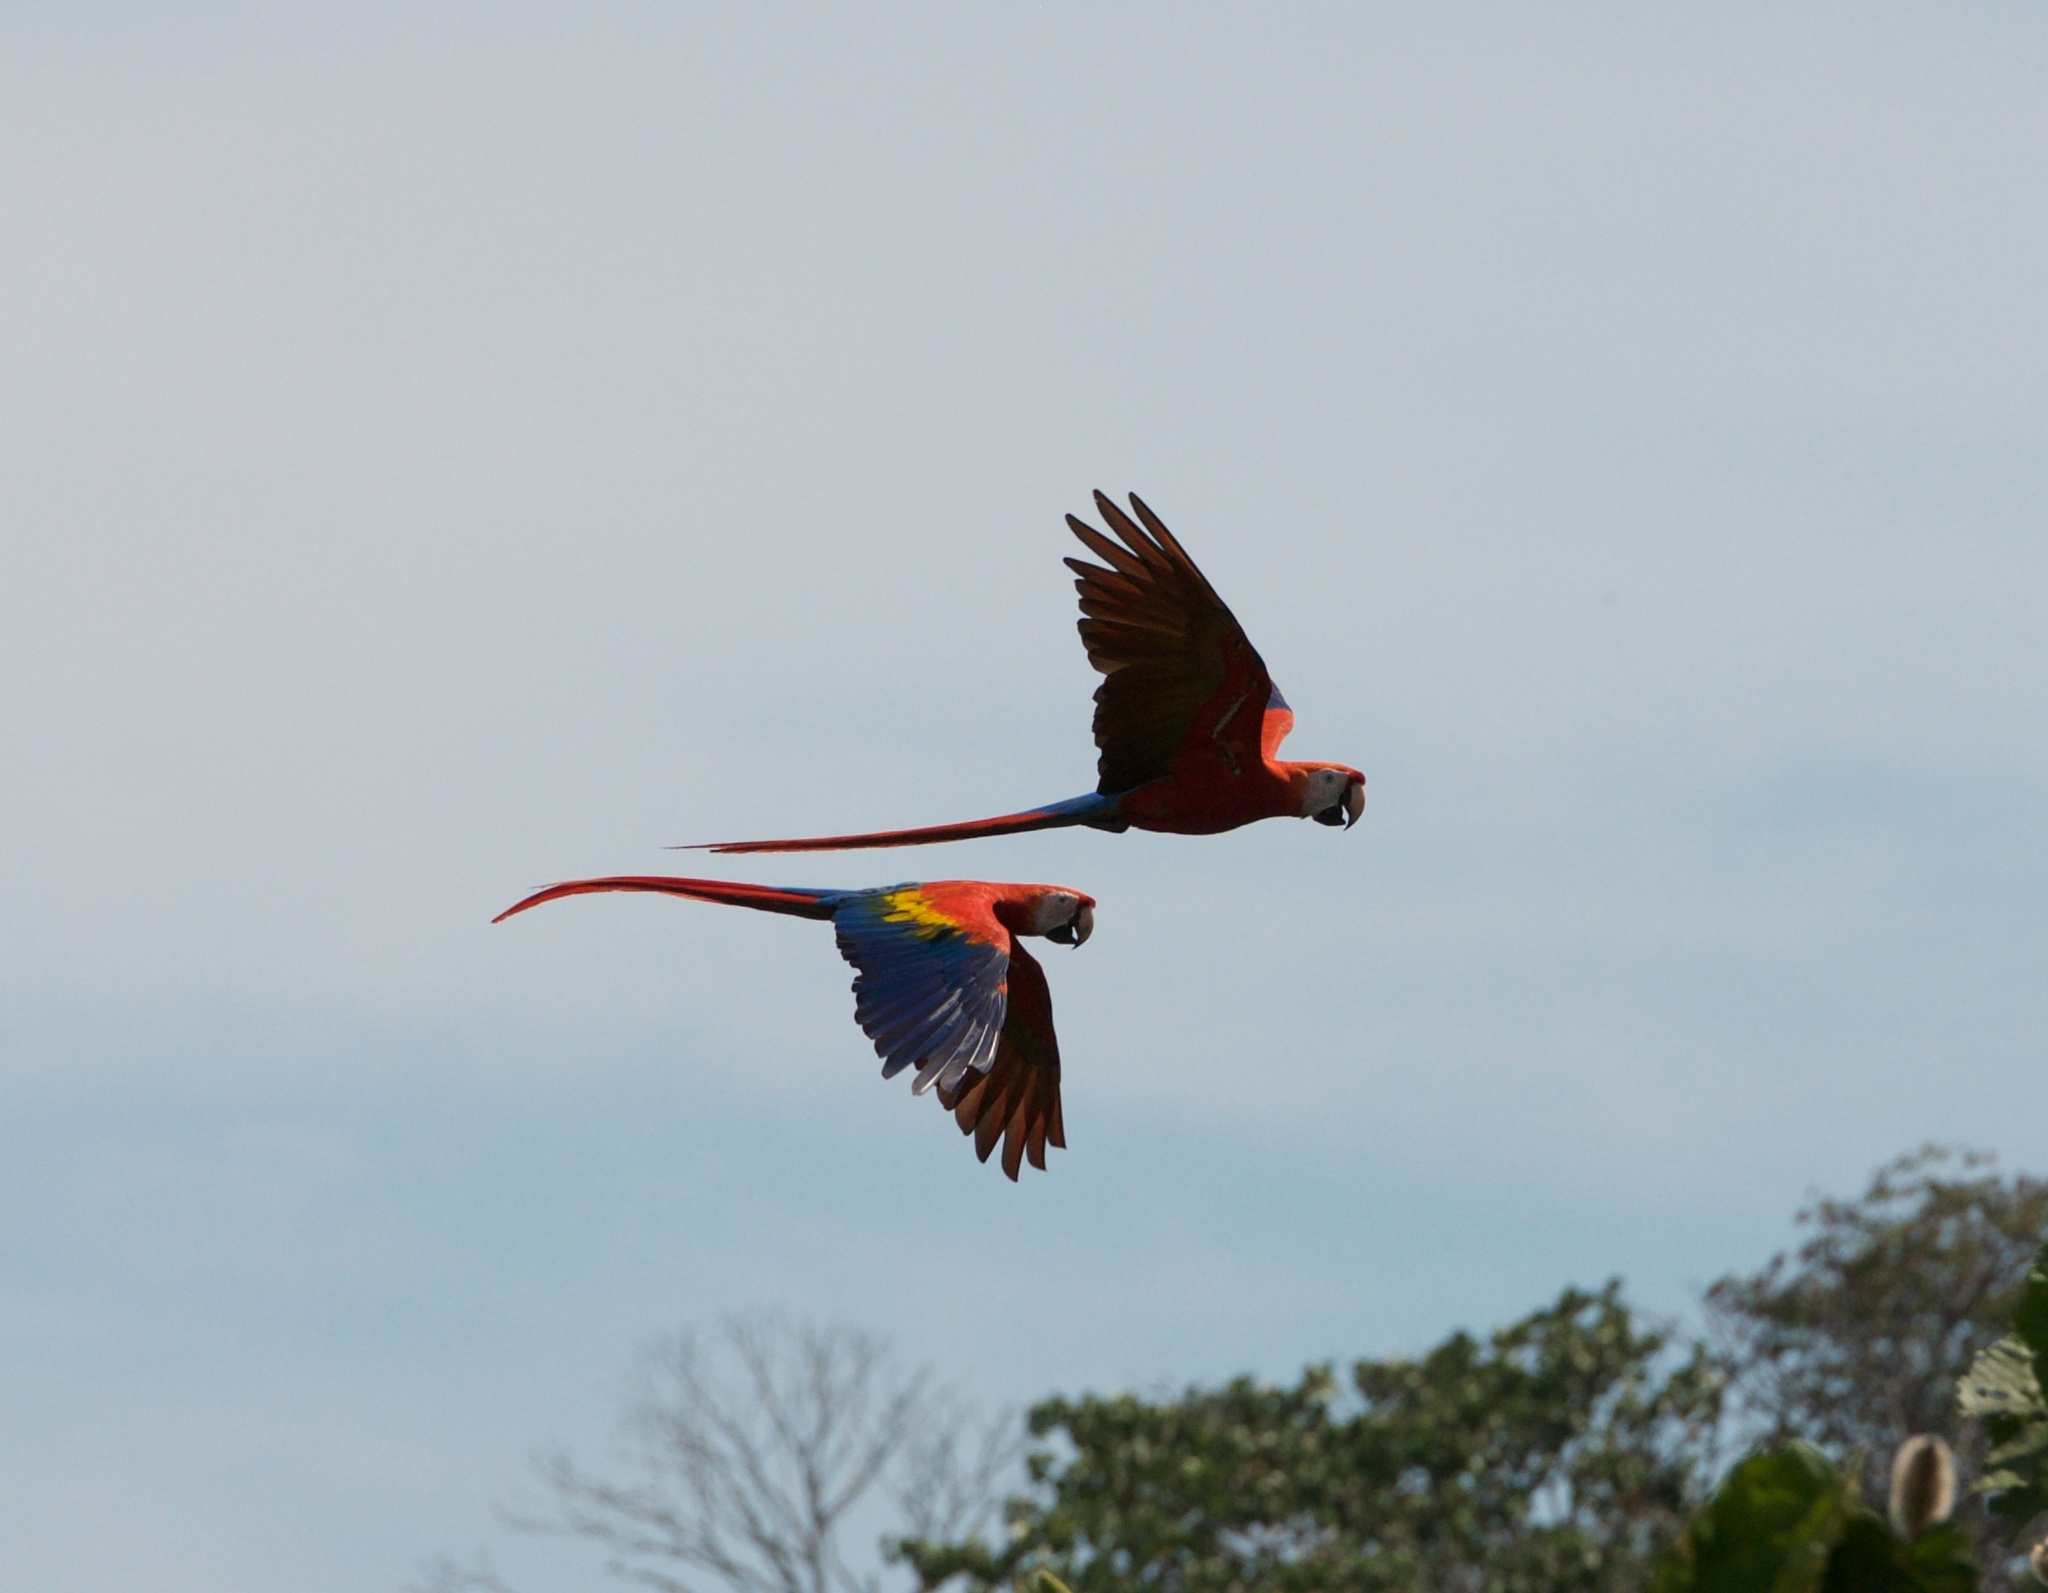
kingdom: Animalia
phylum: Chordata
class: Aves
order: Psittaciformes
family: Psittacidae
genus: Ara
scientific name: Ara macao
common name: Scarlet macaw
